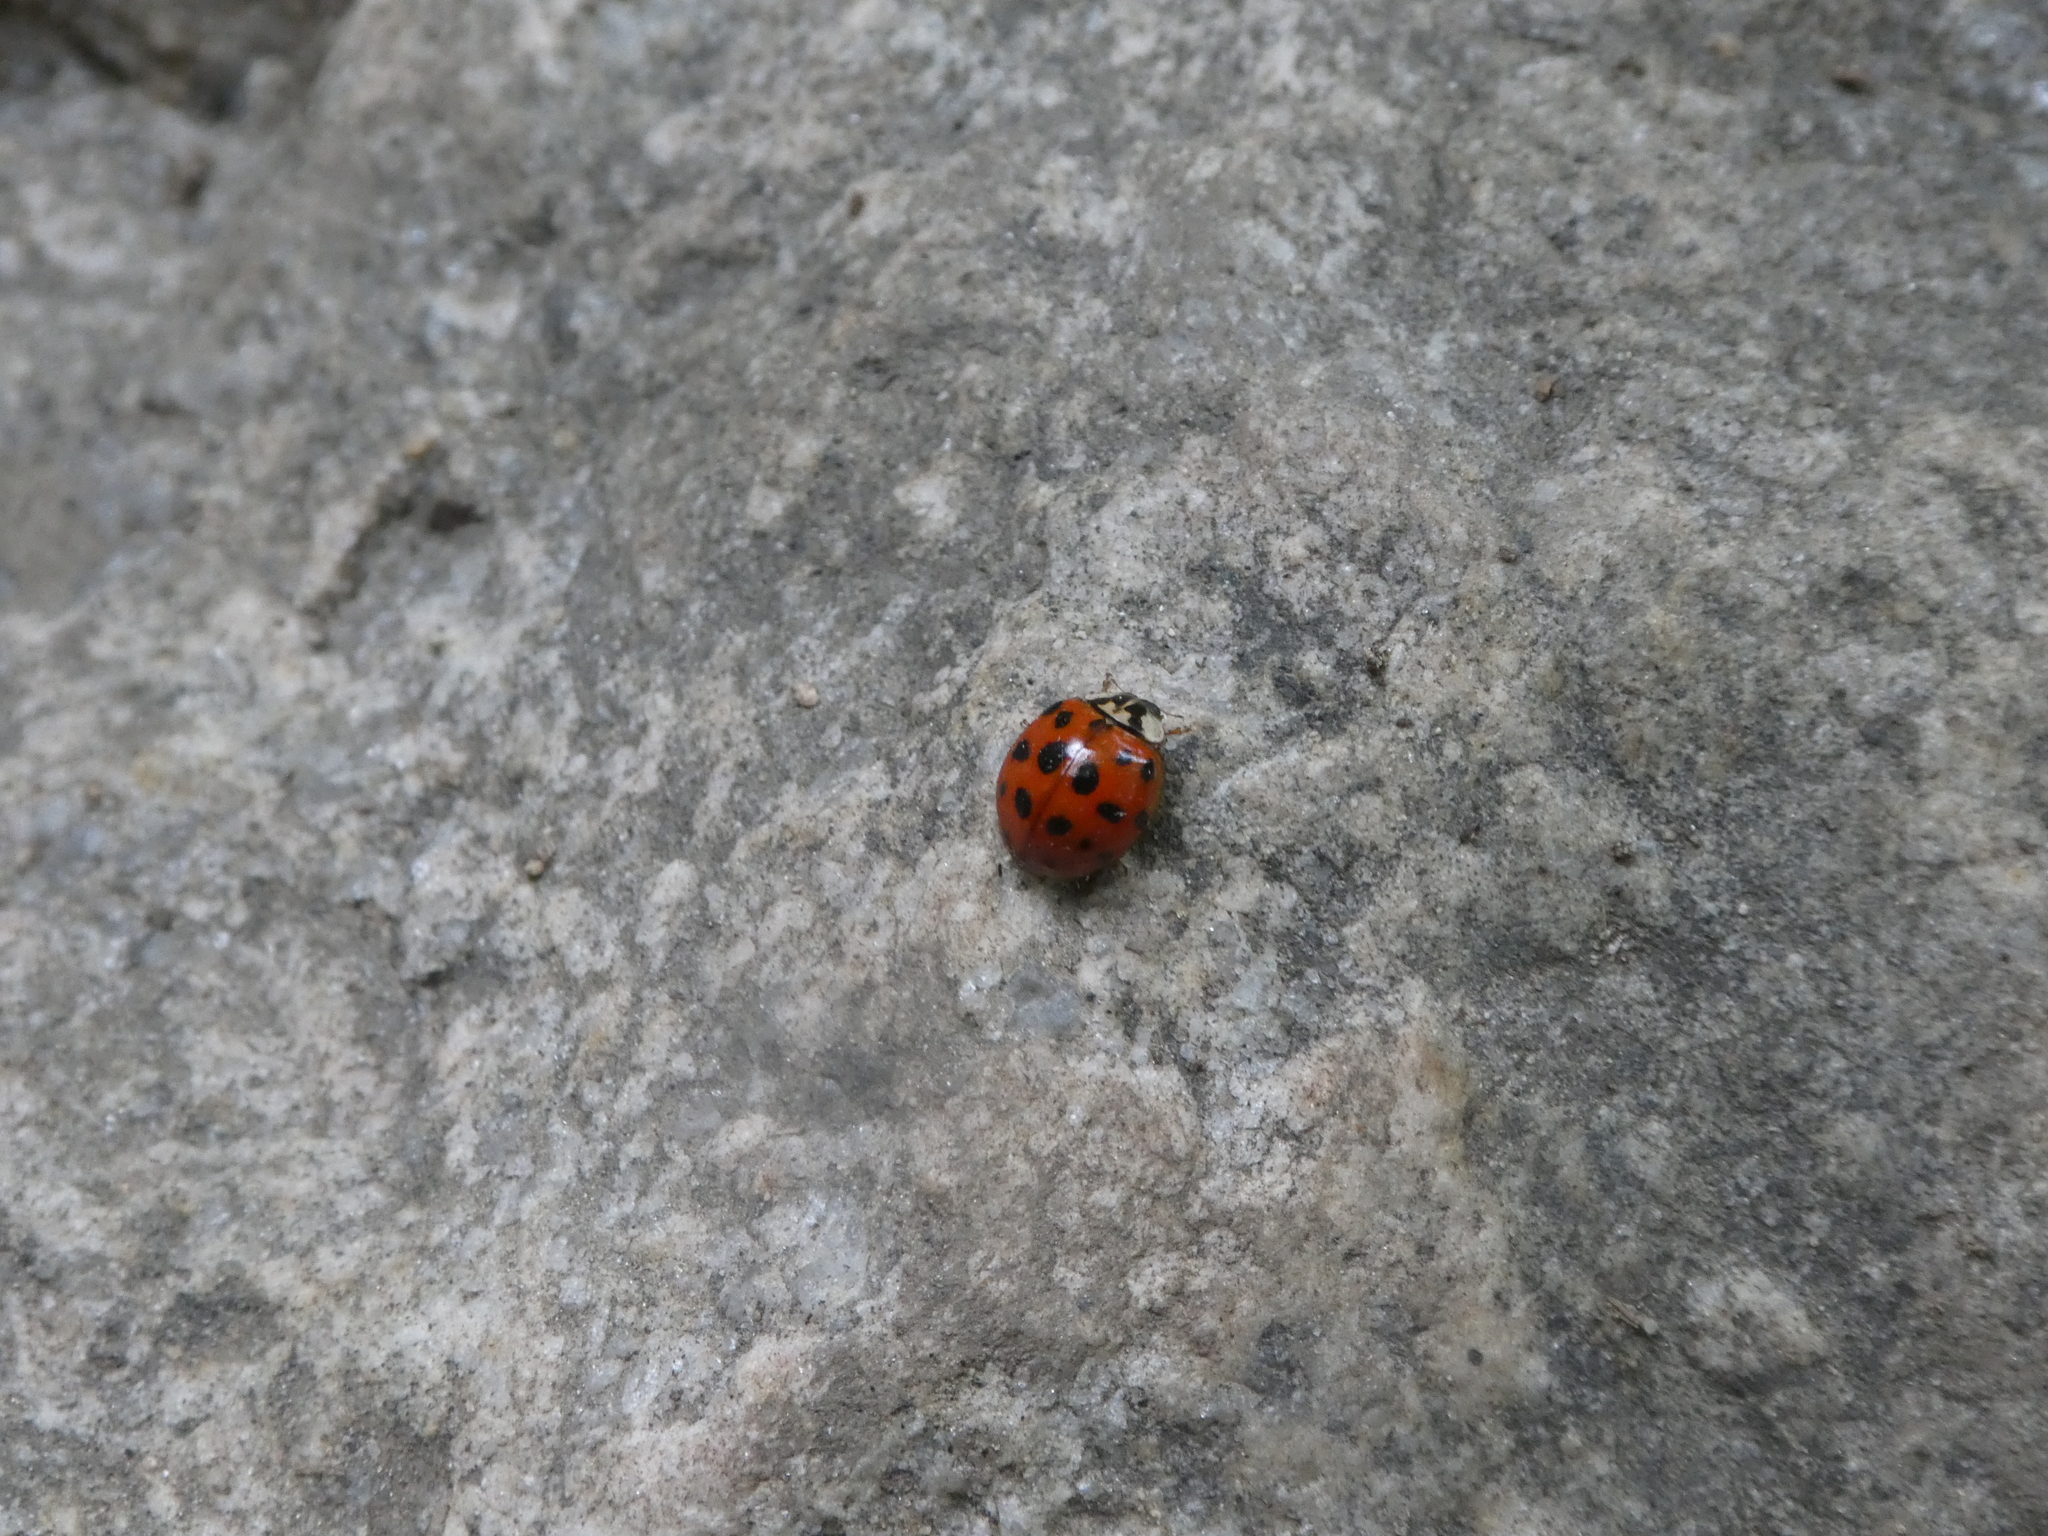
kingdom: Animalia
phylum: Arthropoda
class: Insecta
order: Coleoptera
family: Coccinellidae
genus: Harmonia
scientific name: Harmonia axyridis
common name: Harlequin ladybird
